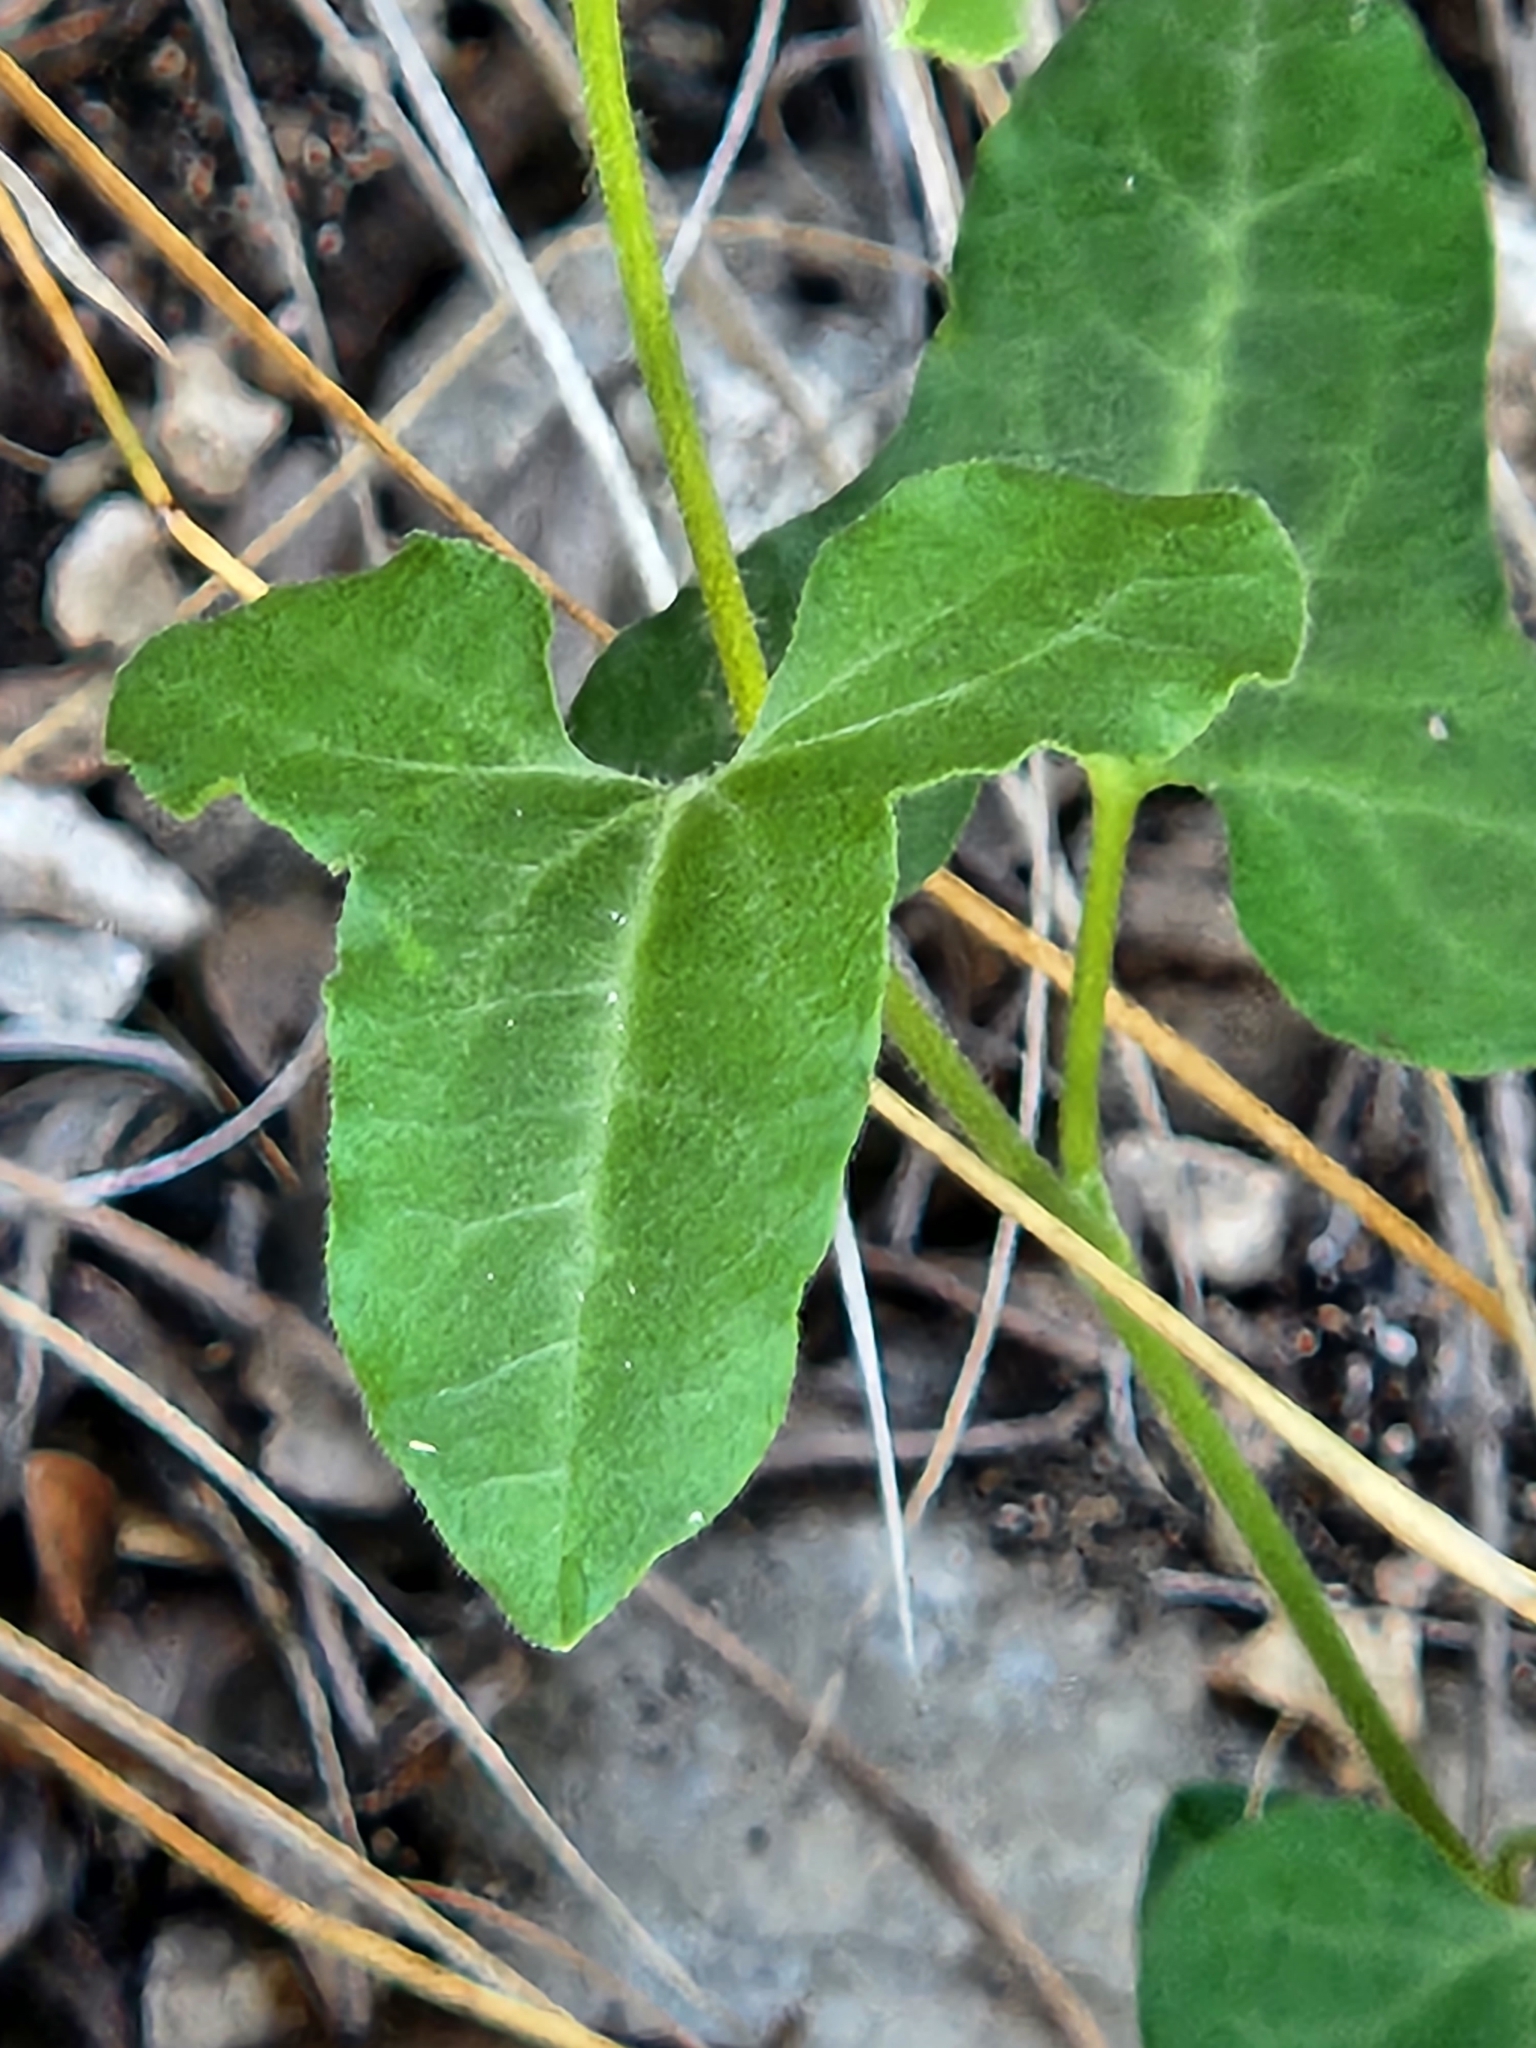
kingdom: Plantae
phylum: Tracheophyta
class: Magnoliopsida
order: Piperales
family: Aristolochiaceae
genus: Aristolochia
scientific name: Aristolochia coryi
